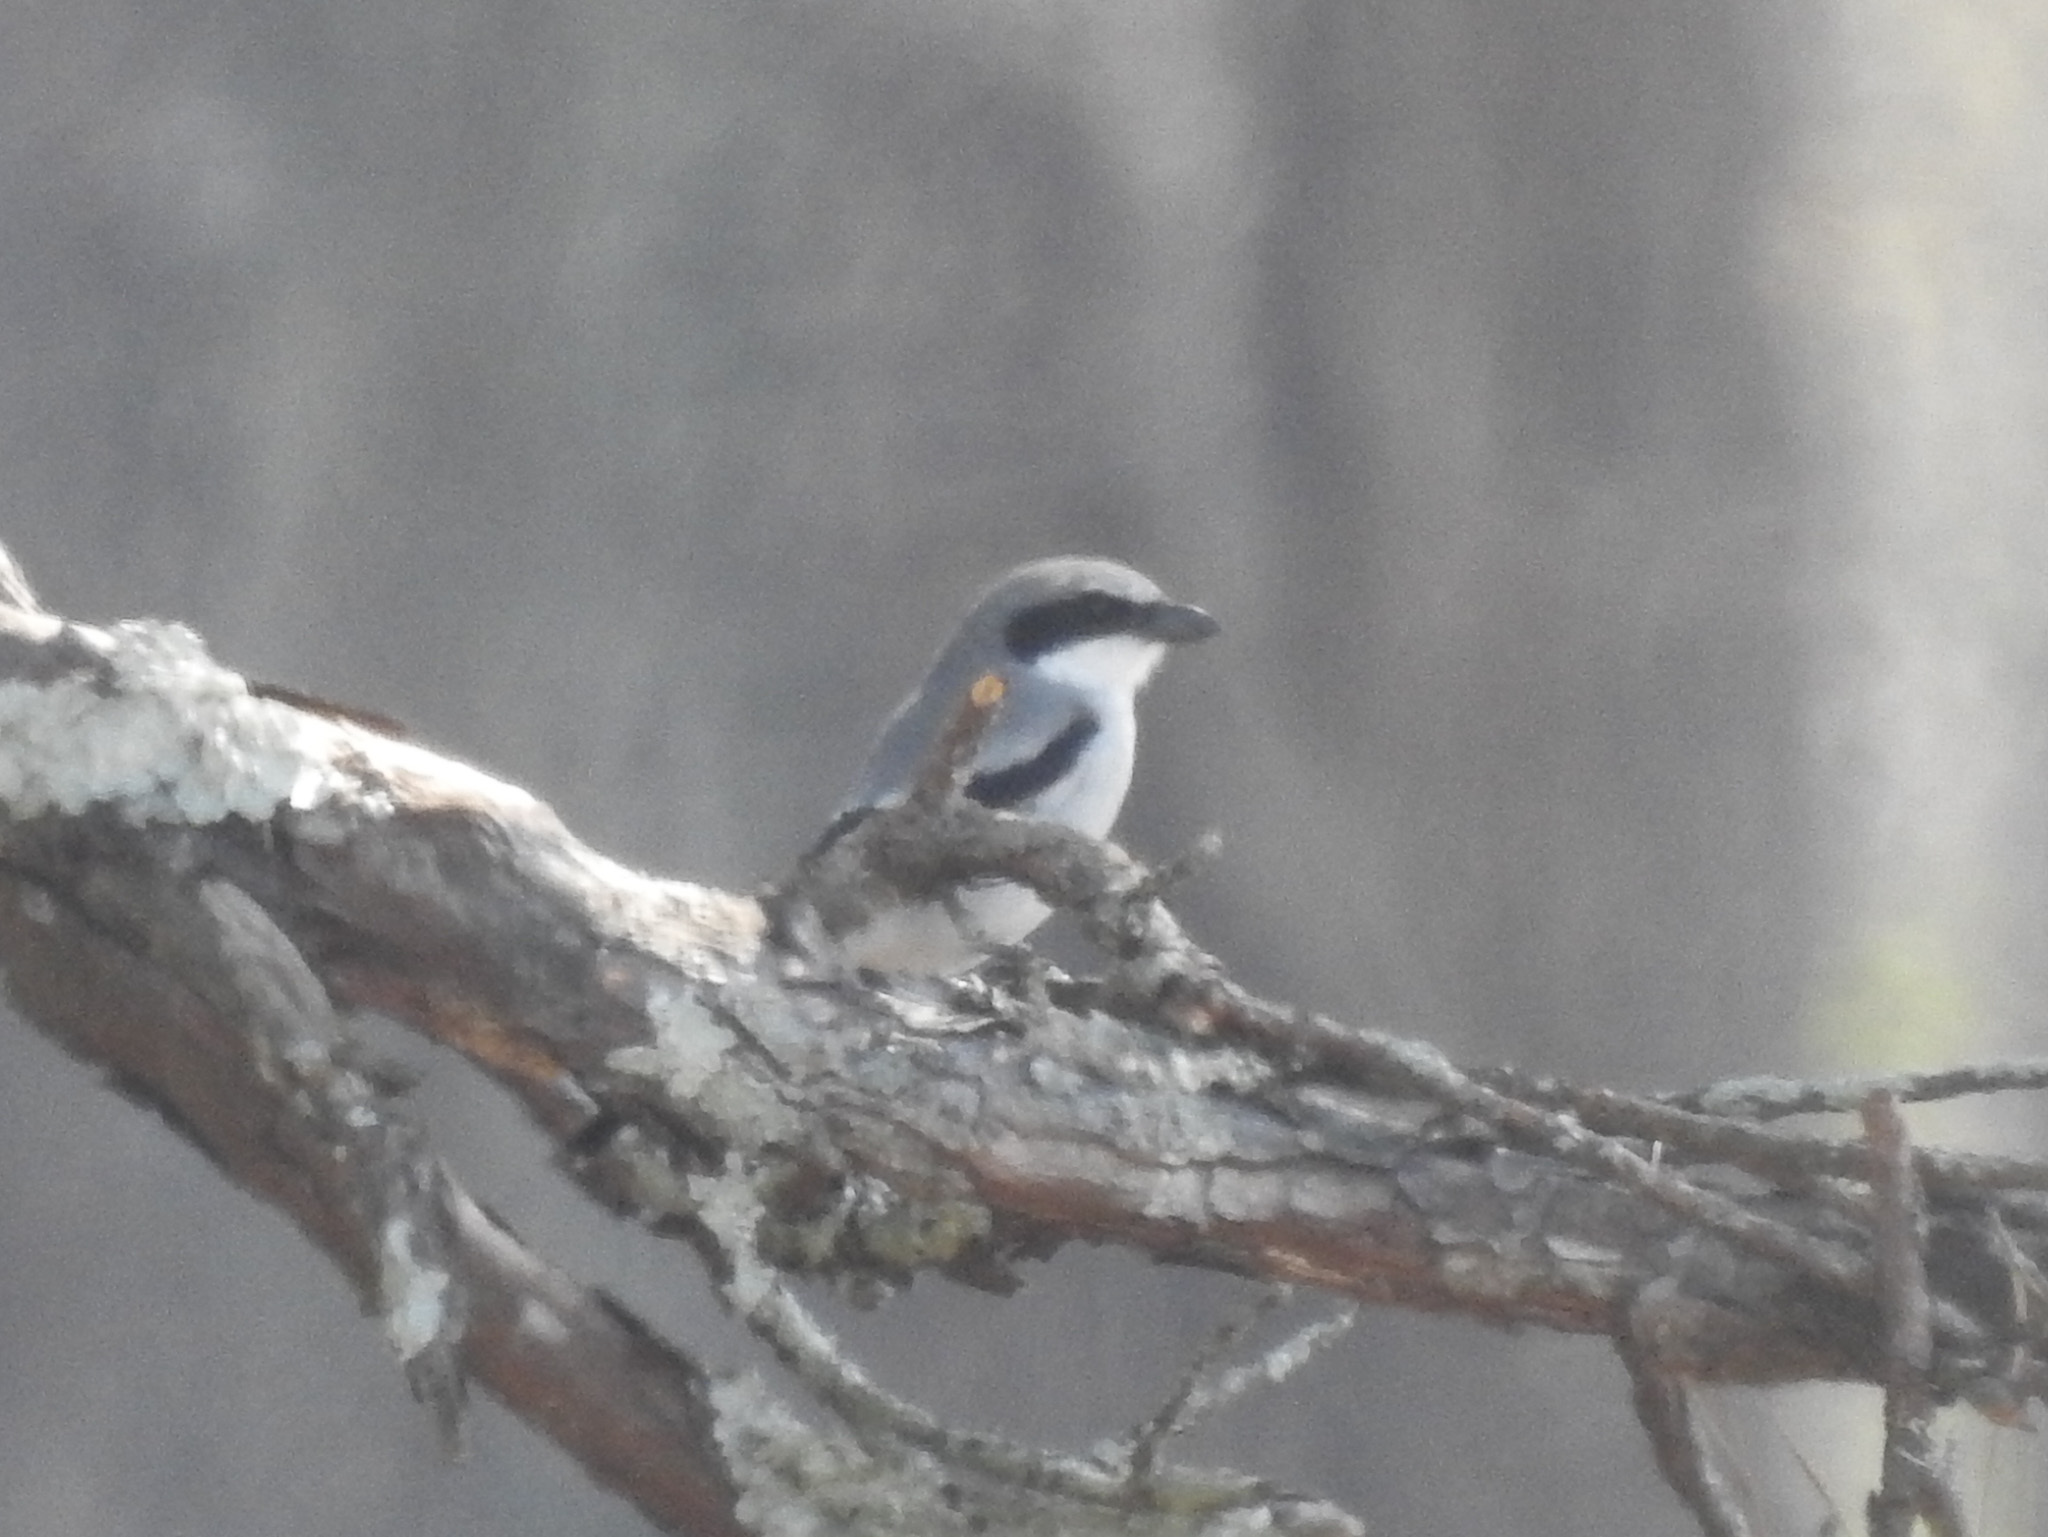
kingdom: Animalia
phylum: Chordata
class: Aves
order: Passeriformes
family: Laniidae
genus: Lanius
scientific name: Lanius ludovicianus
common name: Loggerhead shrike
